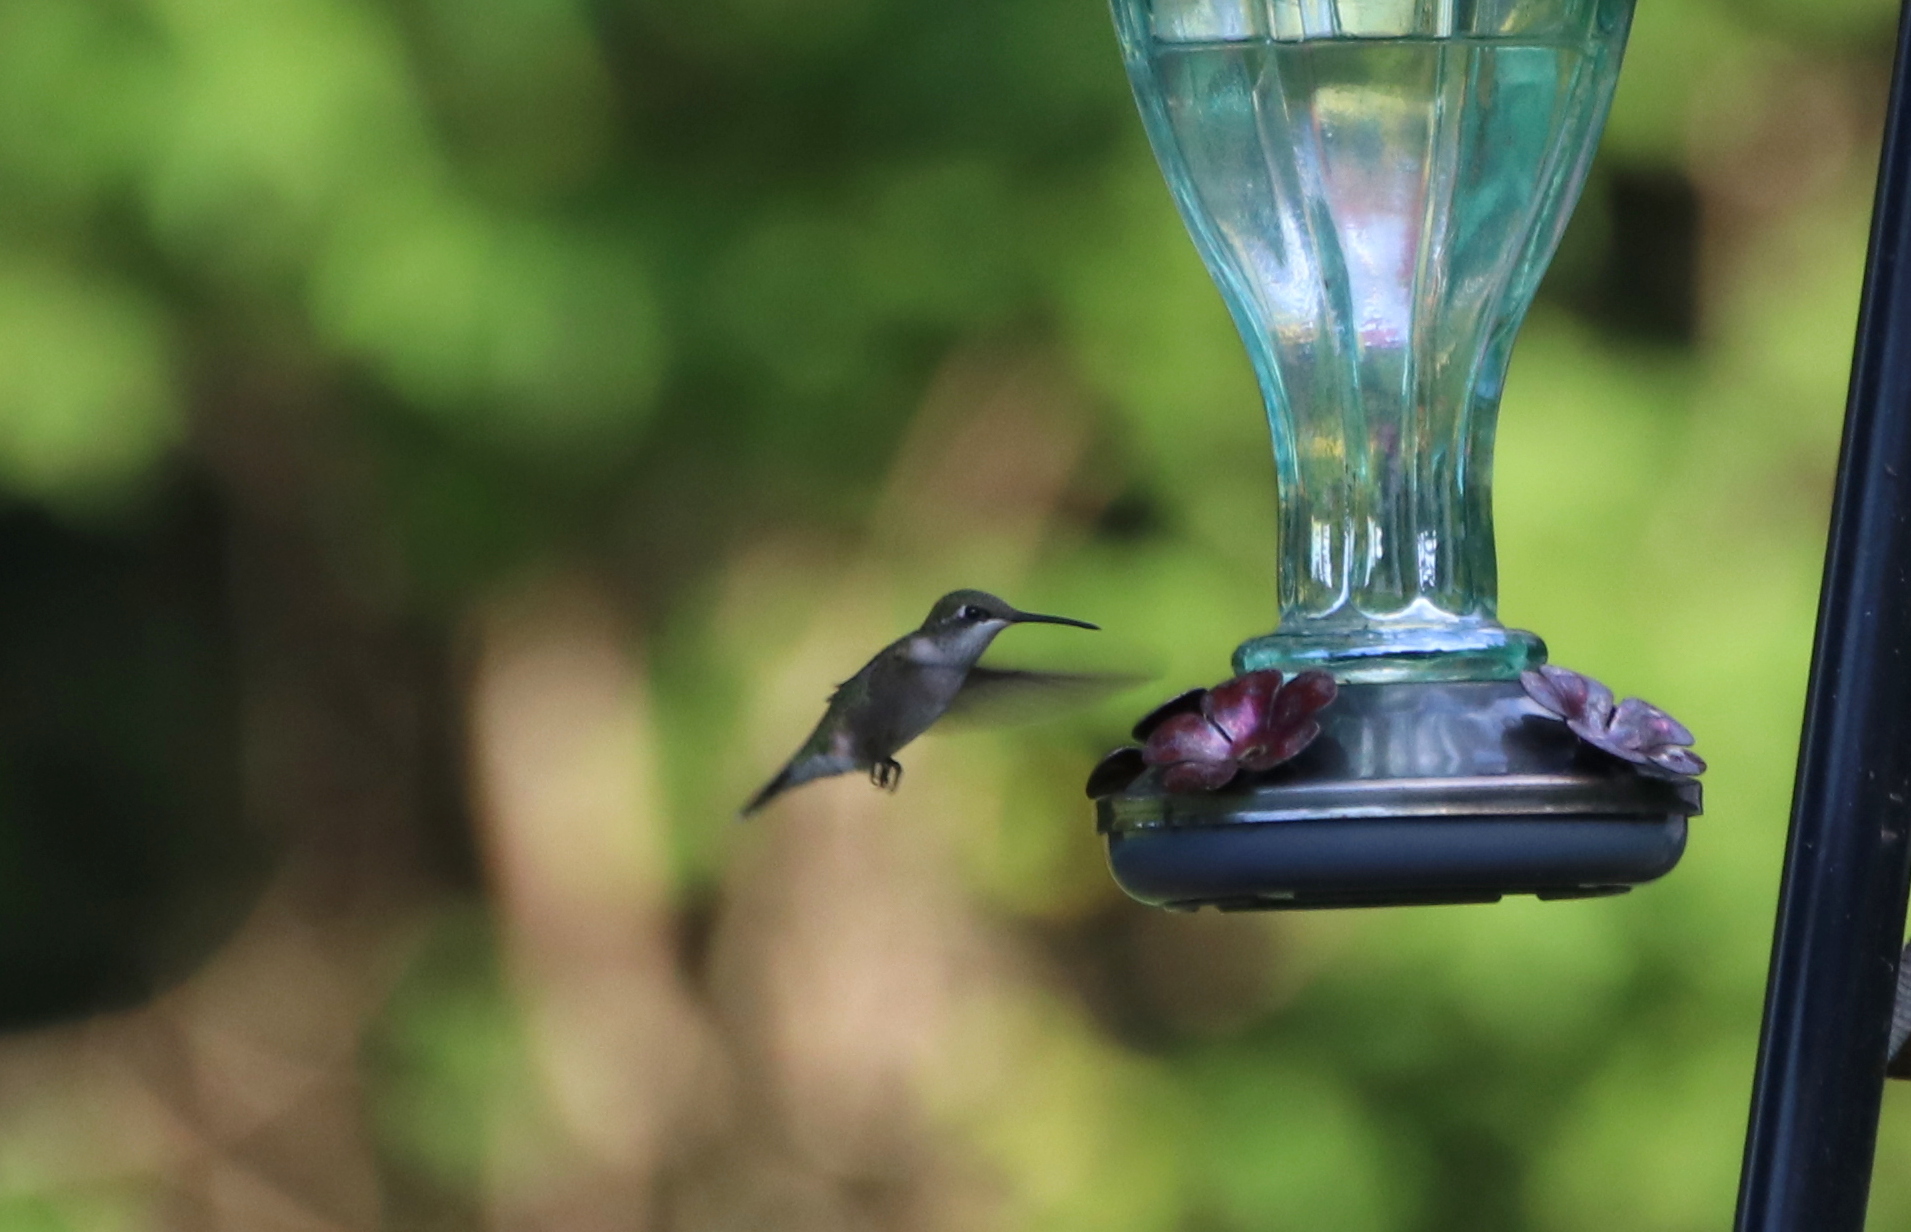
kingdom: Animalia
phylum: Chordata
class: Aves
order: Apodiformes
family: Trochilidae
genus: Archilochus
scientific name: Archilochus colubris
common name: Ruby-throated hummingbird
